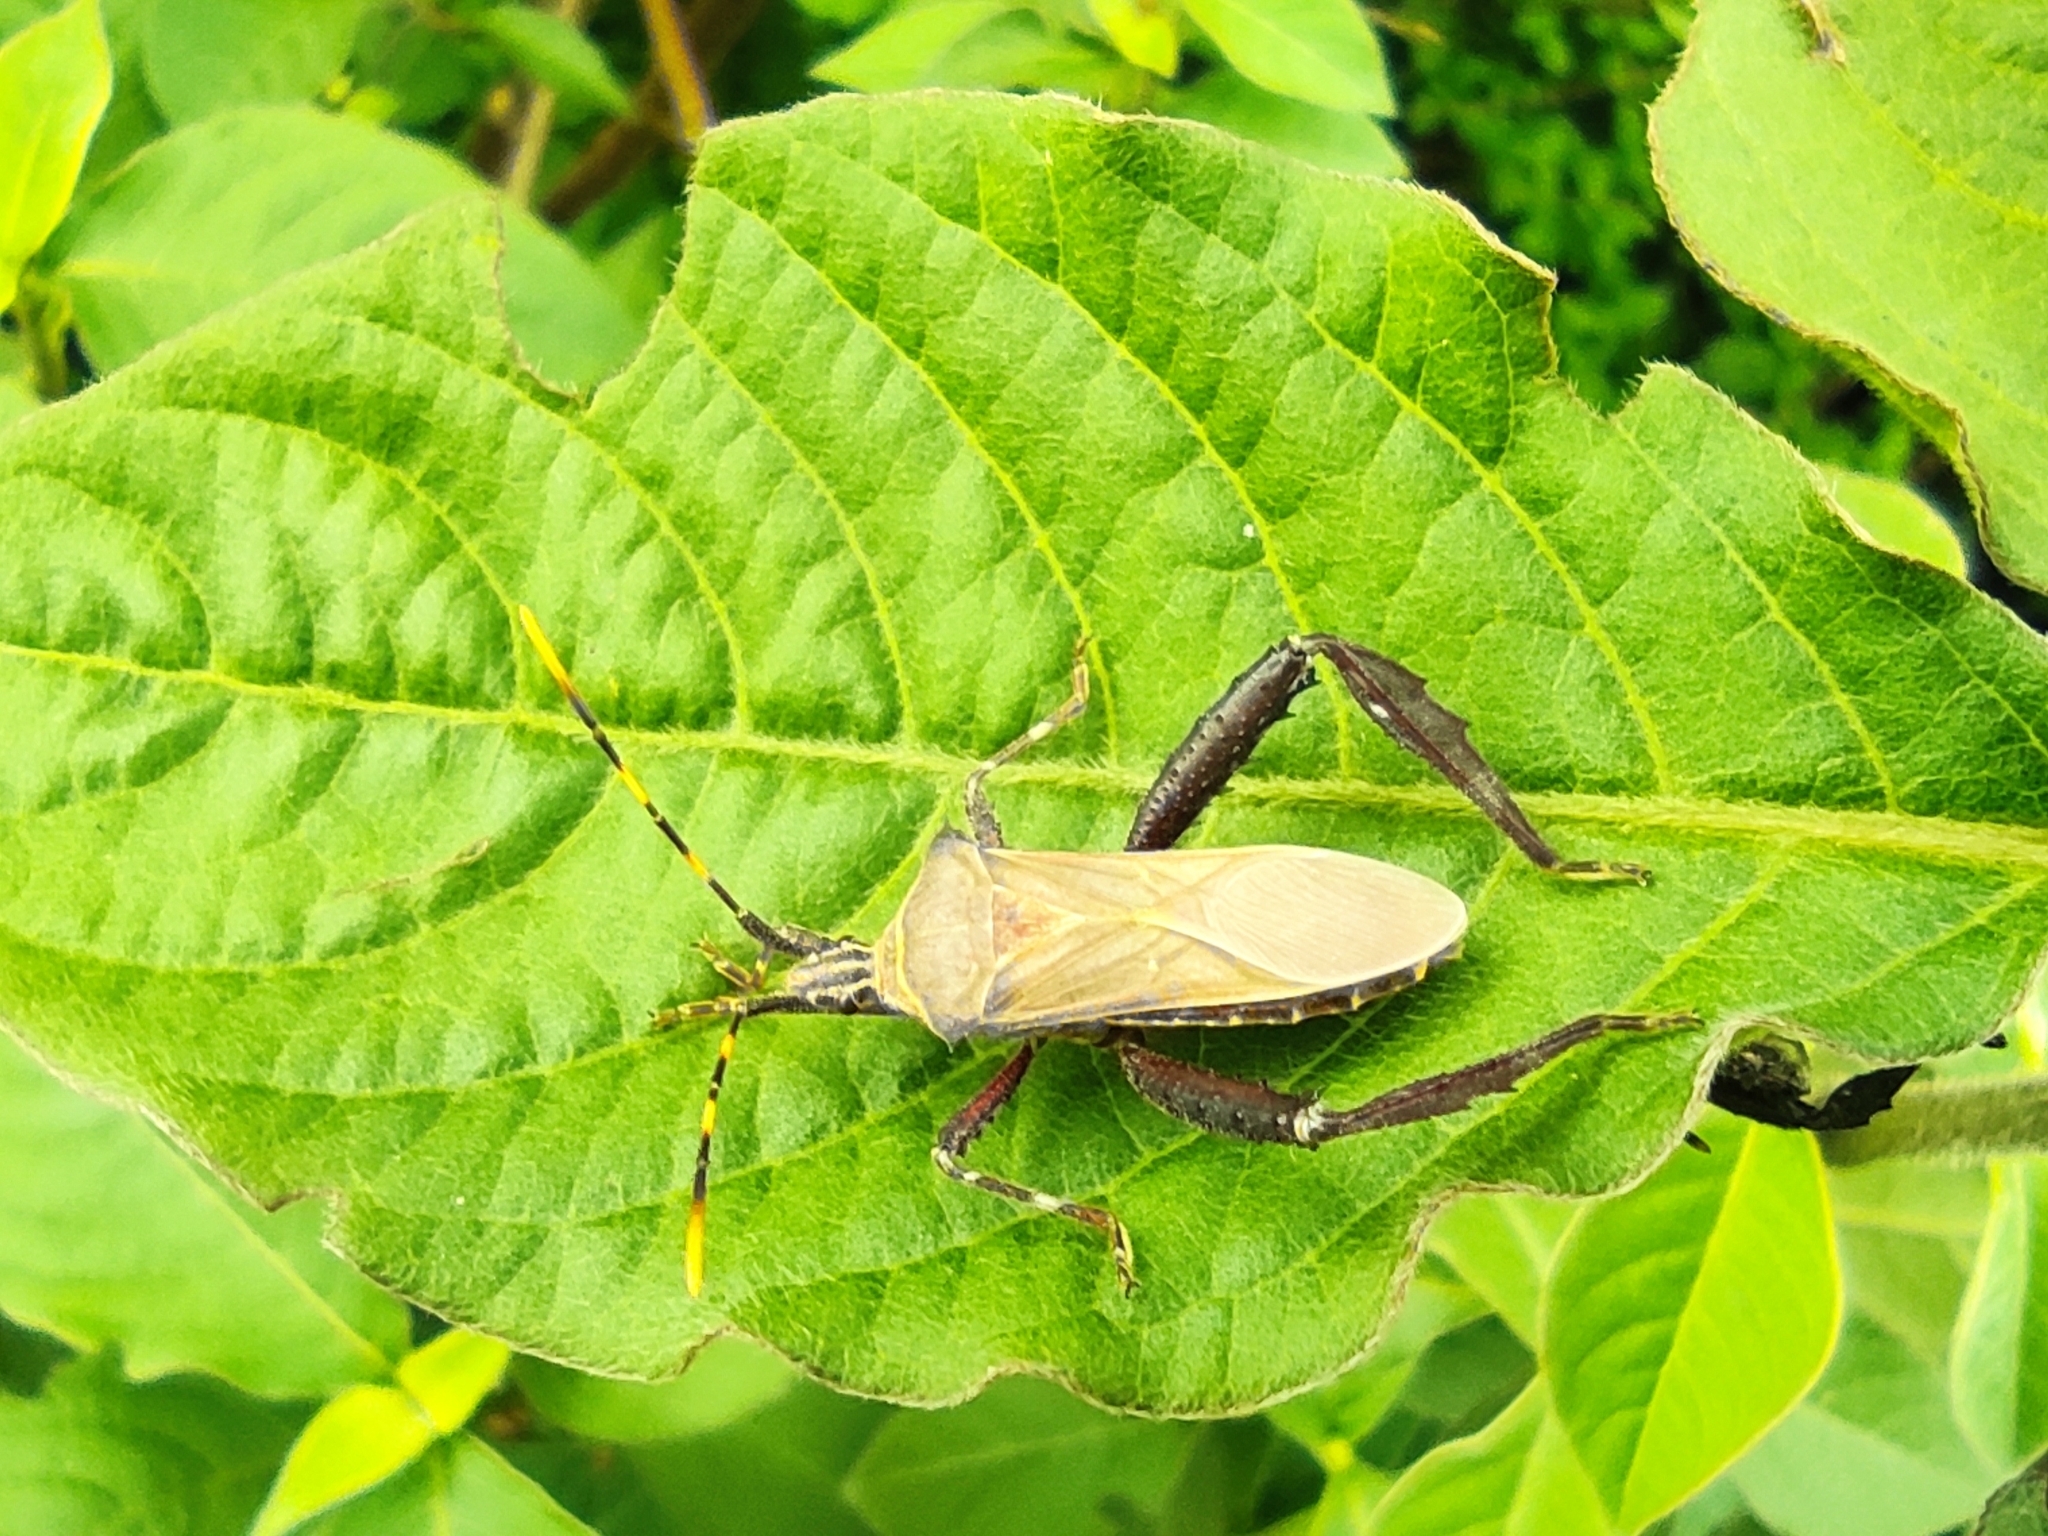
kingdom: Animalia
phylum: Arthropoda
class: Insecta
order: Hemiptera
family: Coreidae
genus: Leptoglossus
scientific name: Leptoglossus gonagra
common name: Citron bug
